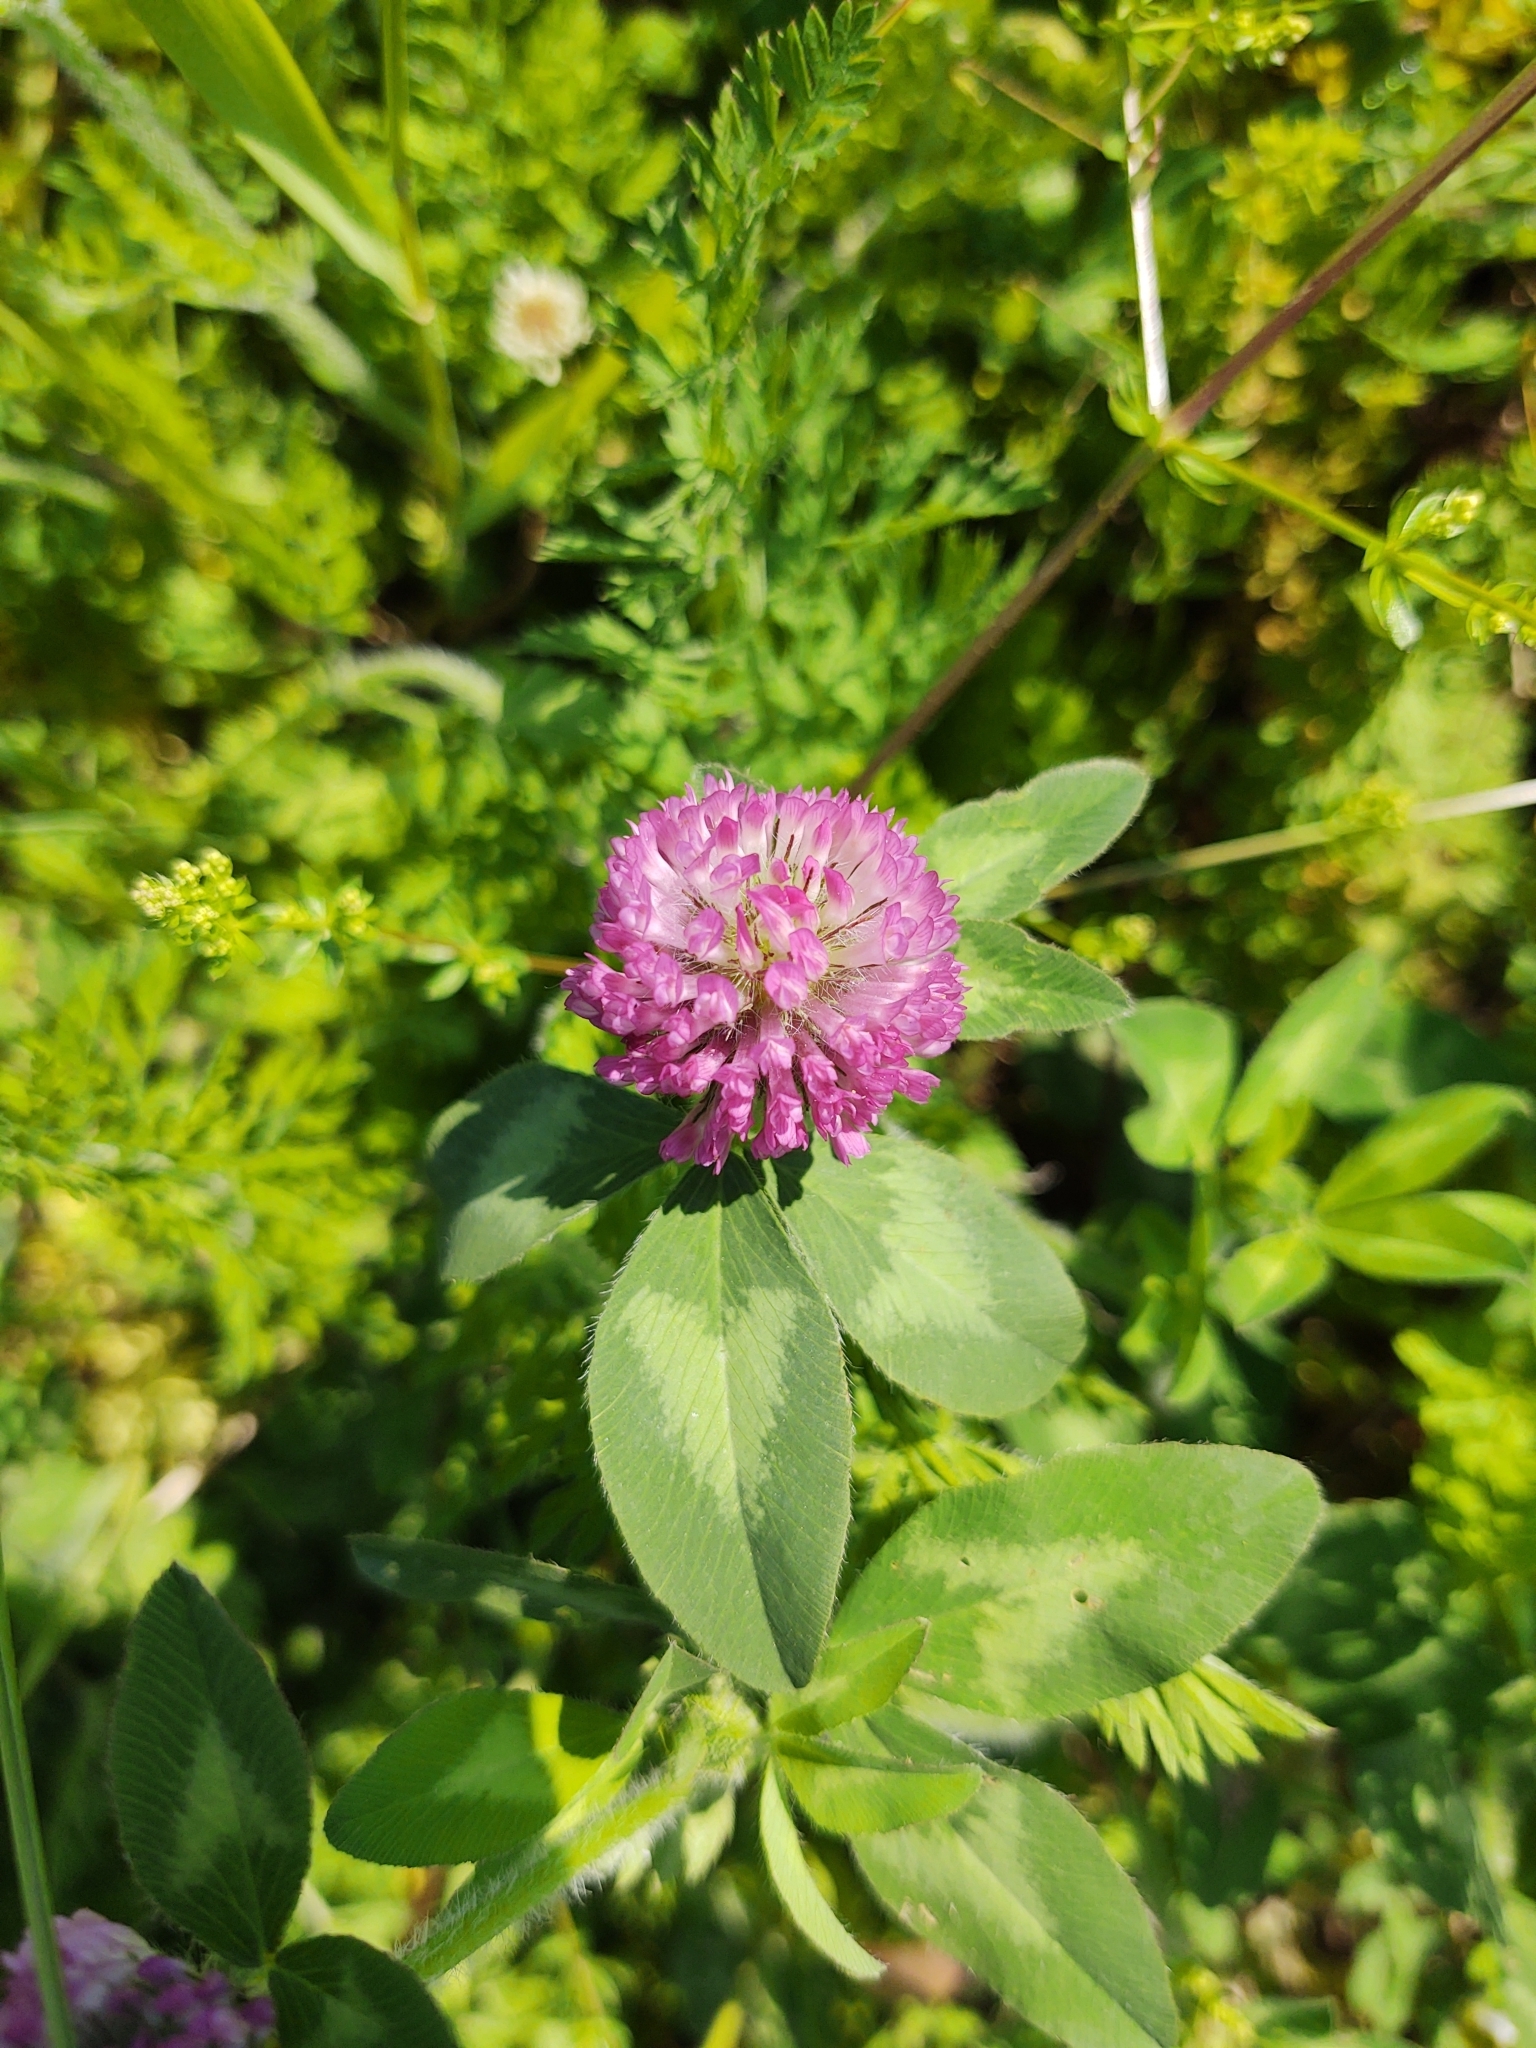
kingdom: Plantae
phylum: Tracheophyta
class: Magnoliopsida
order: Fabales
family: Fabaceae
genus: Trifolium
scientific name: Trifolium pratense
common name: Red clover
